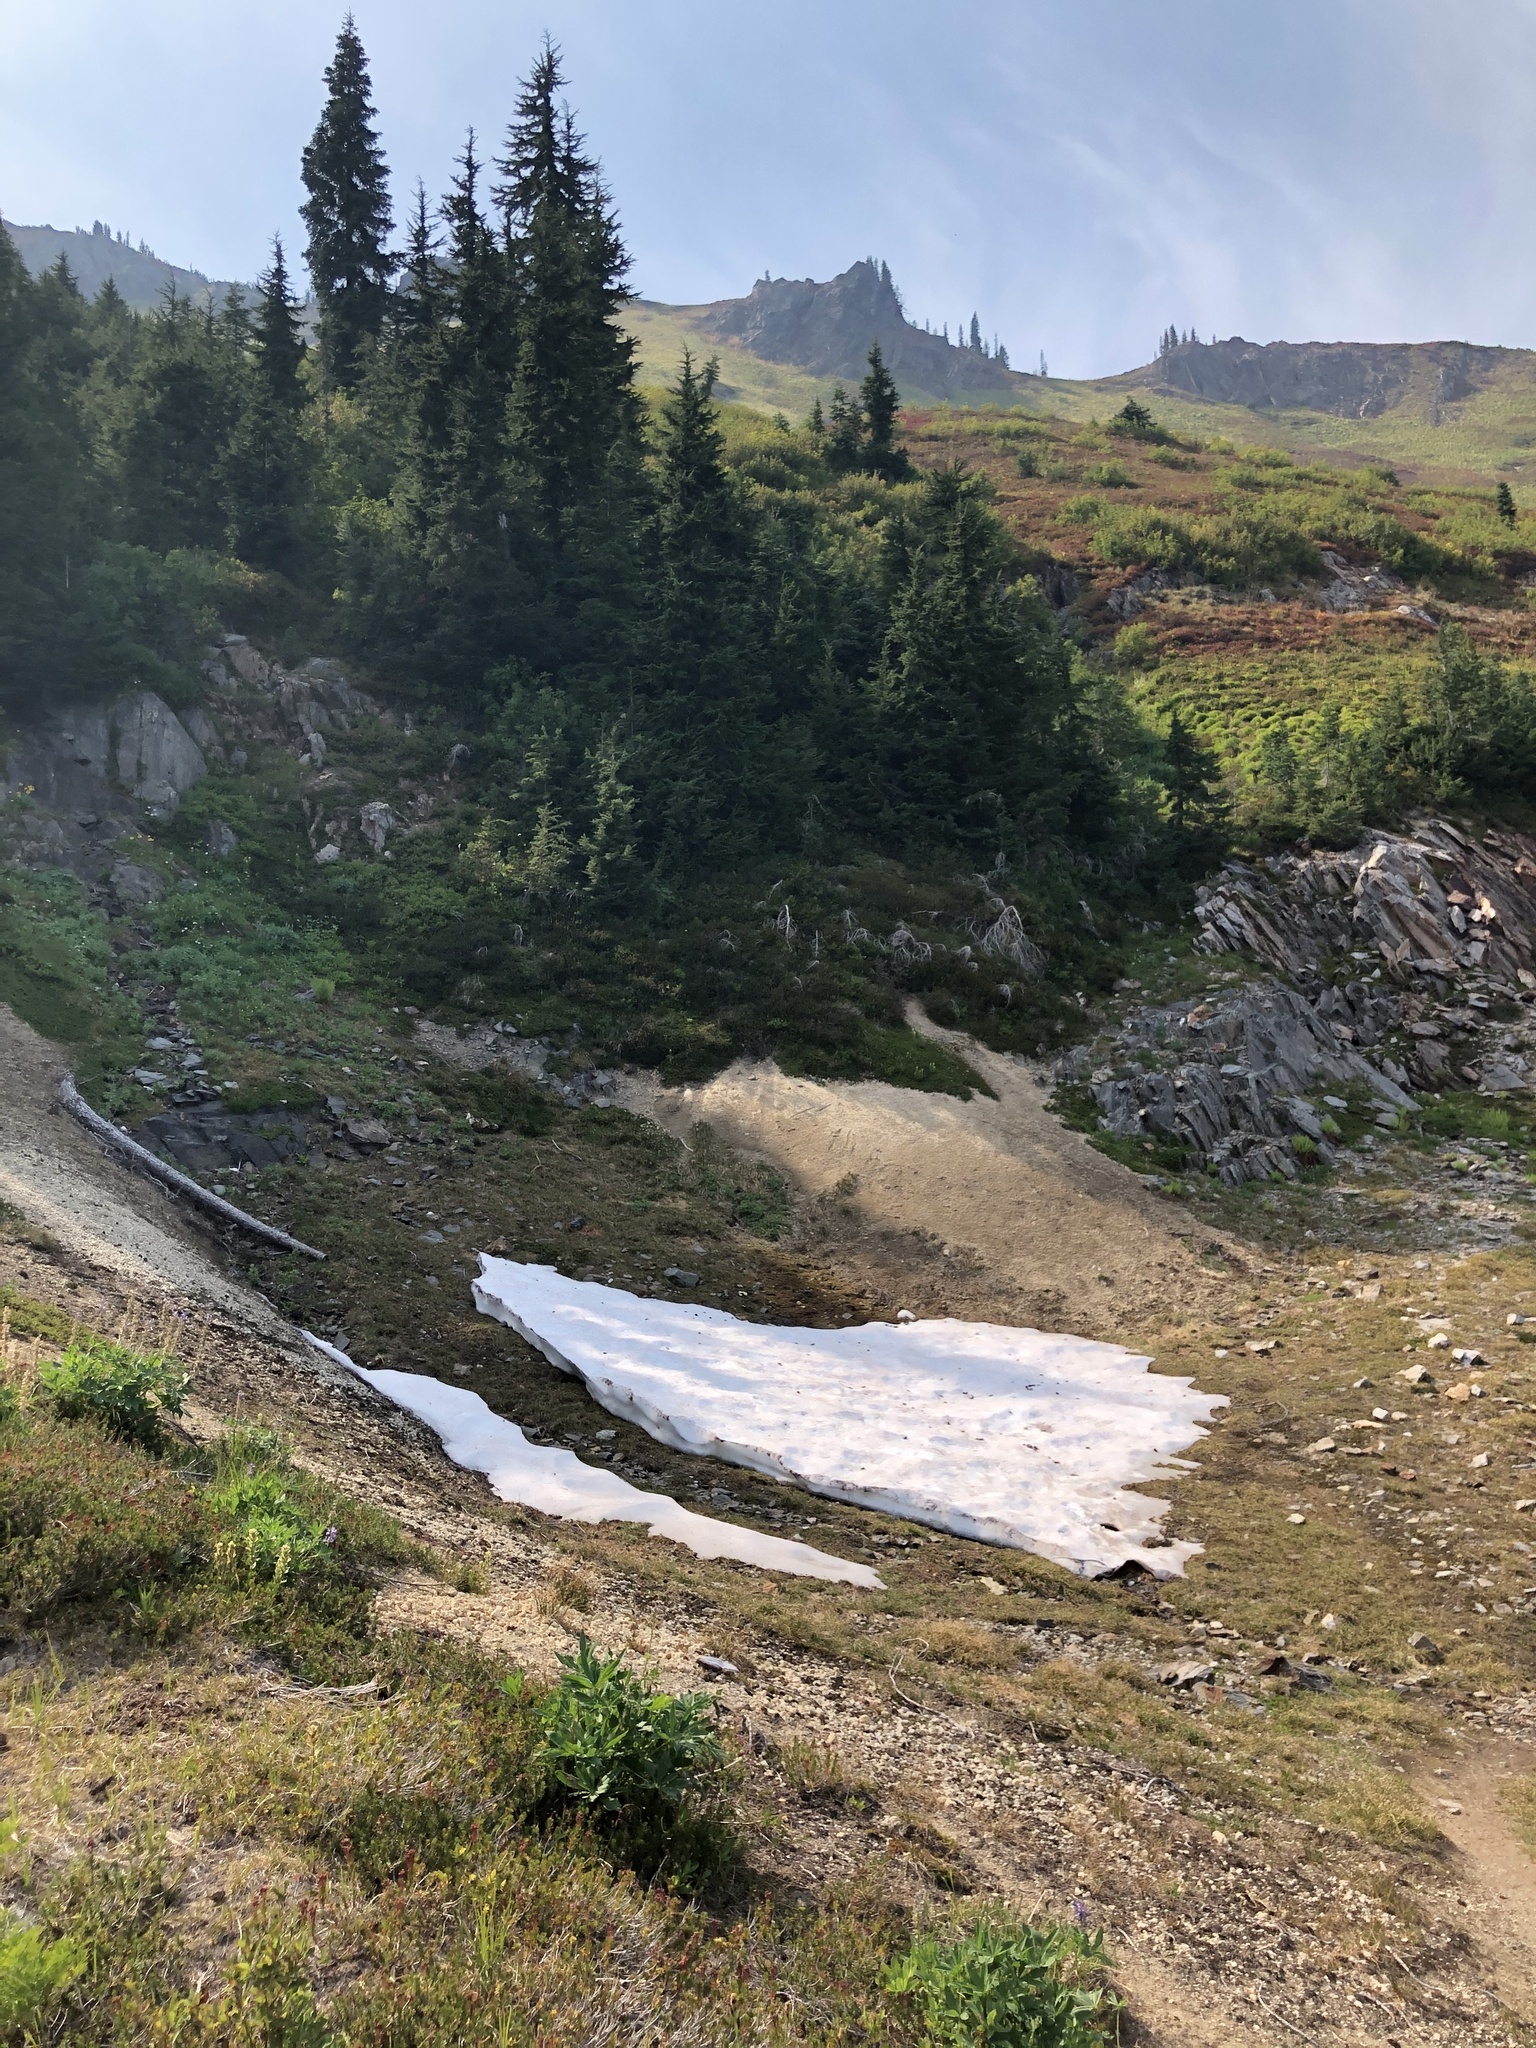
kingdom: Plantae
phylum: Tracheophyta
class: Pinopsida
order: Pinales
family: Pinaceae
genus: Tsuga
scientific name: Tsuga mertensiana
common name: Mountain hemlock
